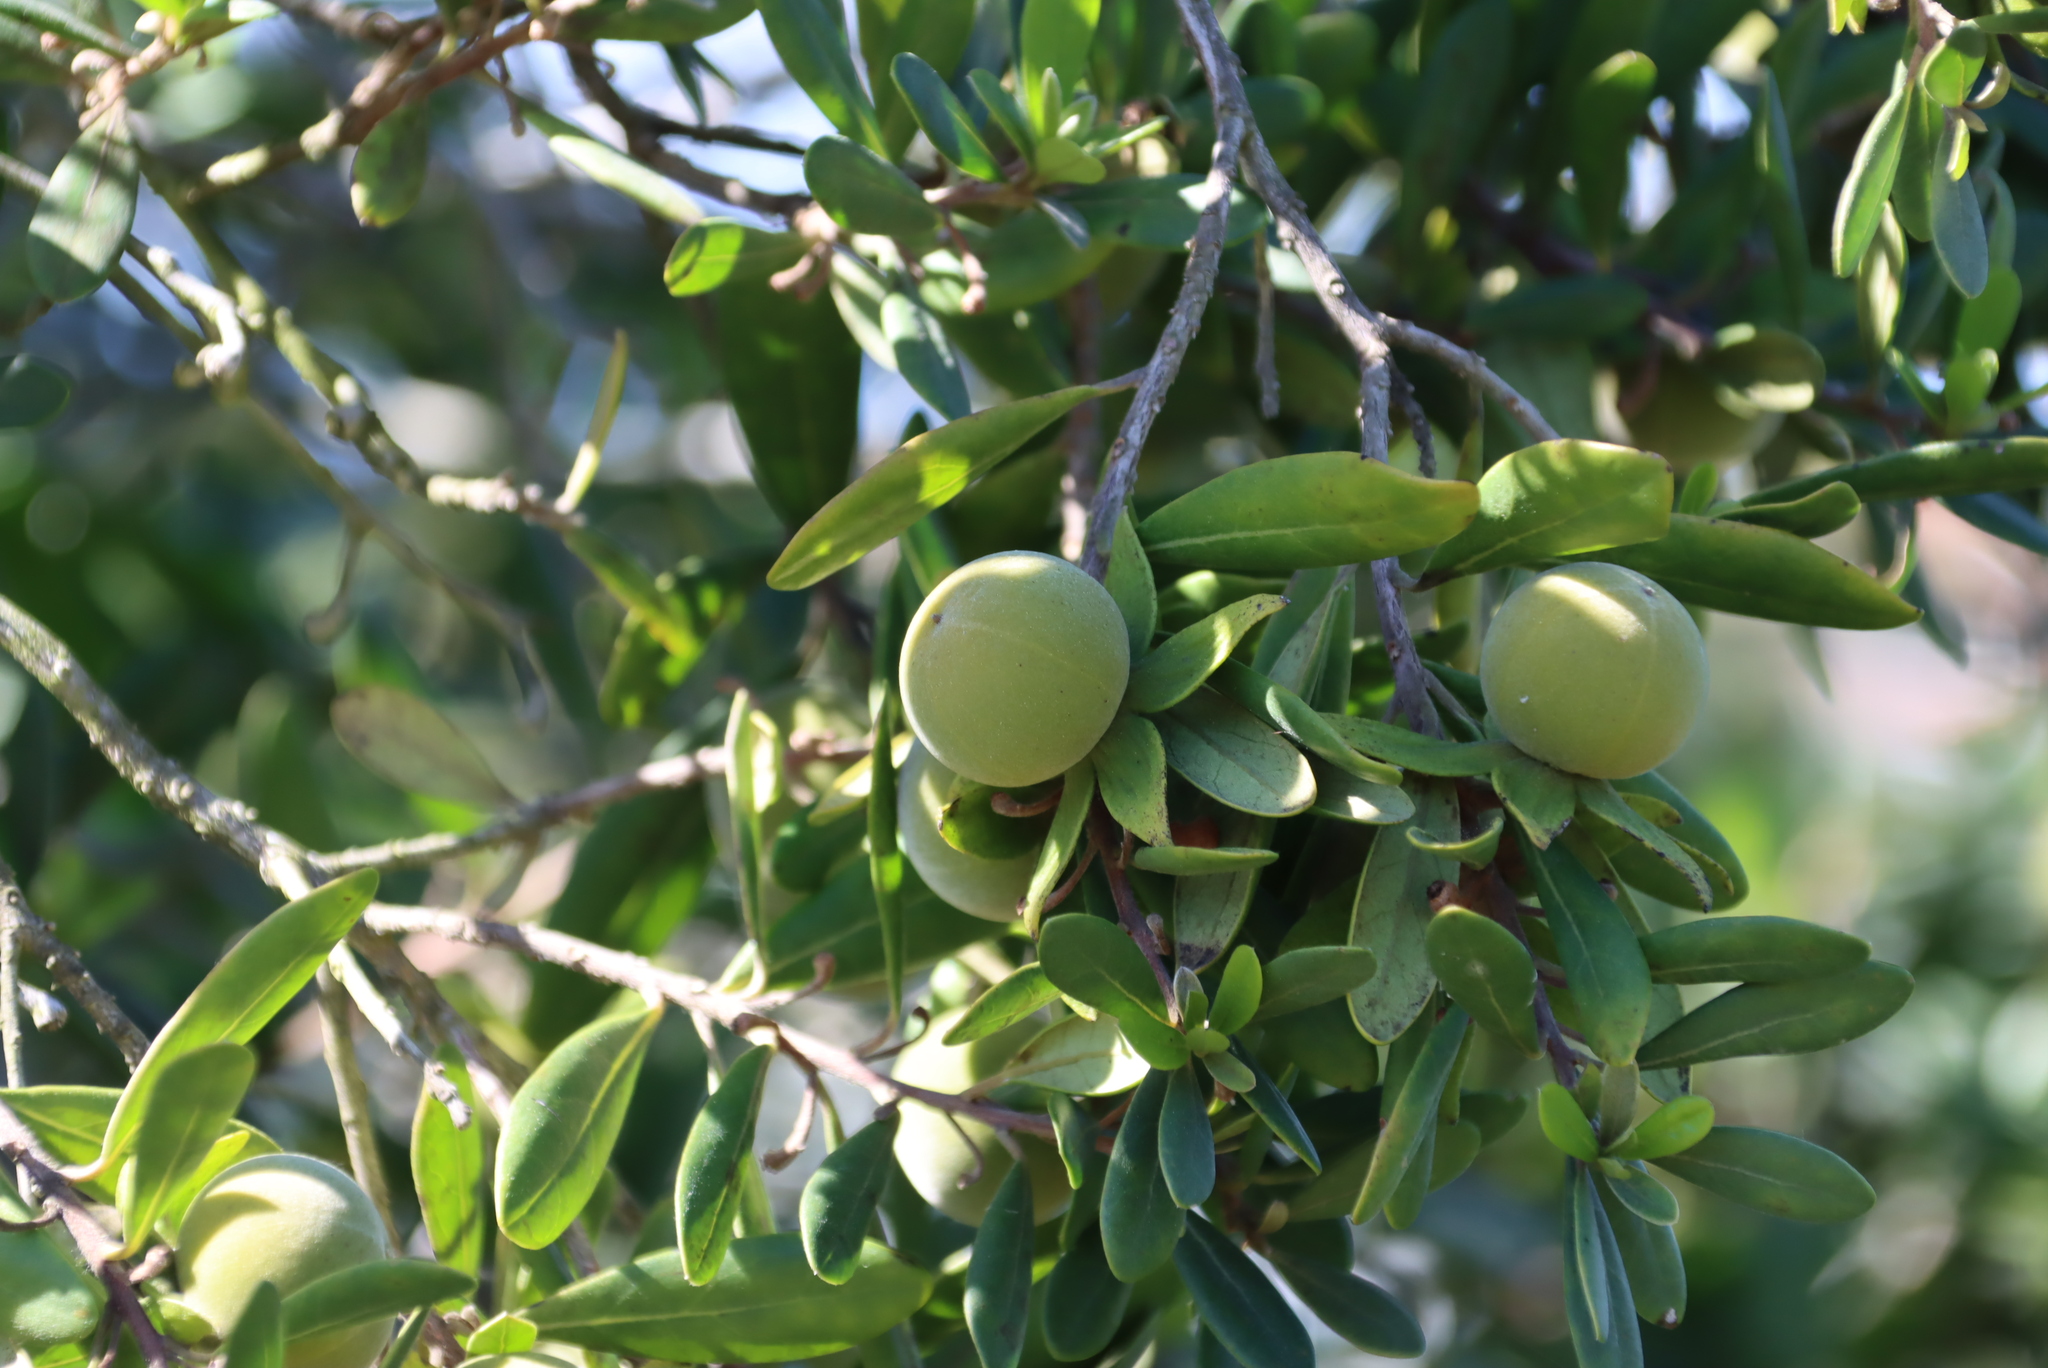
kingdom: Plantae
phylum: Tracheophyta
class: Magnoliopsida
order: Ericales
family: Ebenaceae
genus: Diospyros
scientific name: Diospyros dichrophylla
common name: Common star-apple
